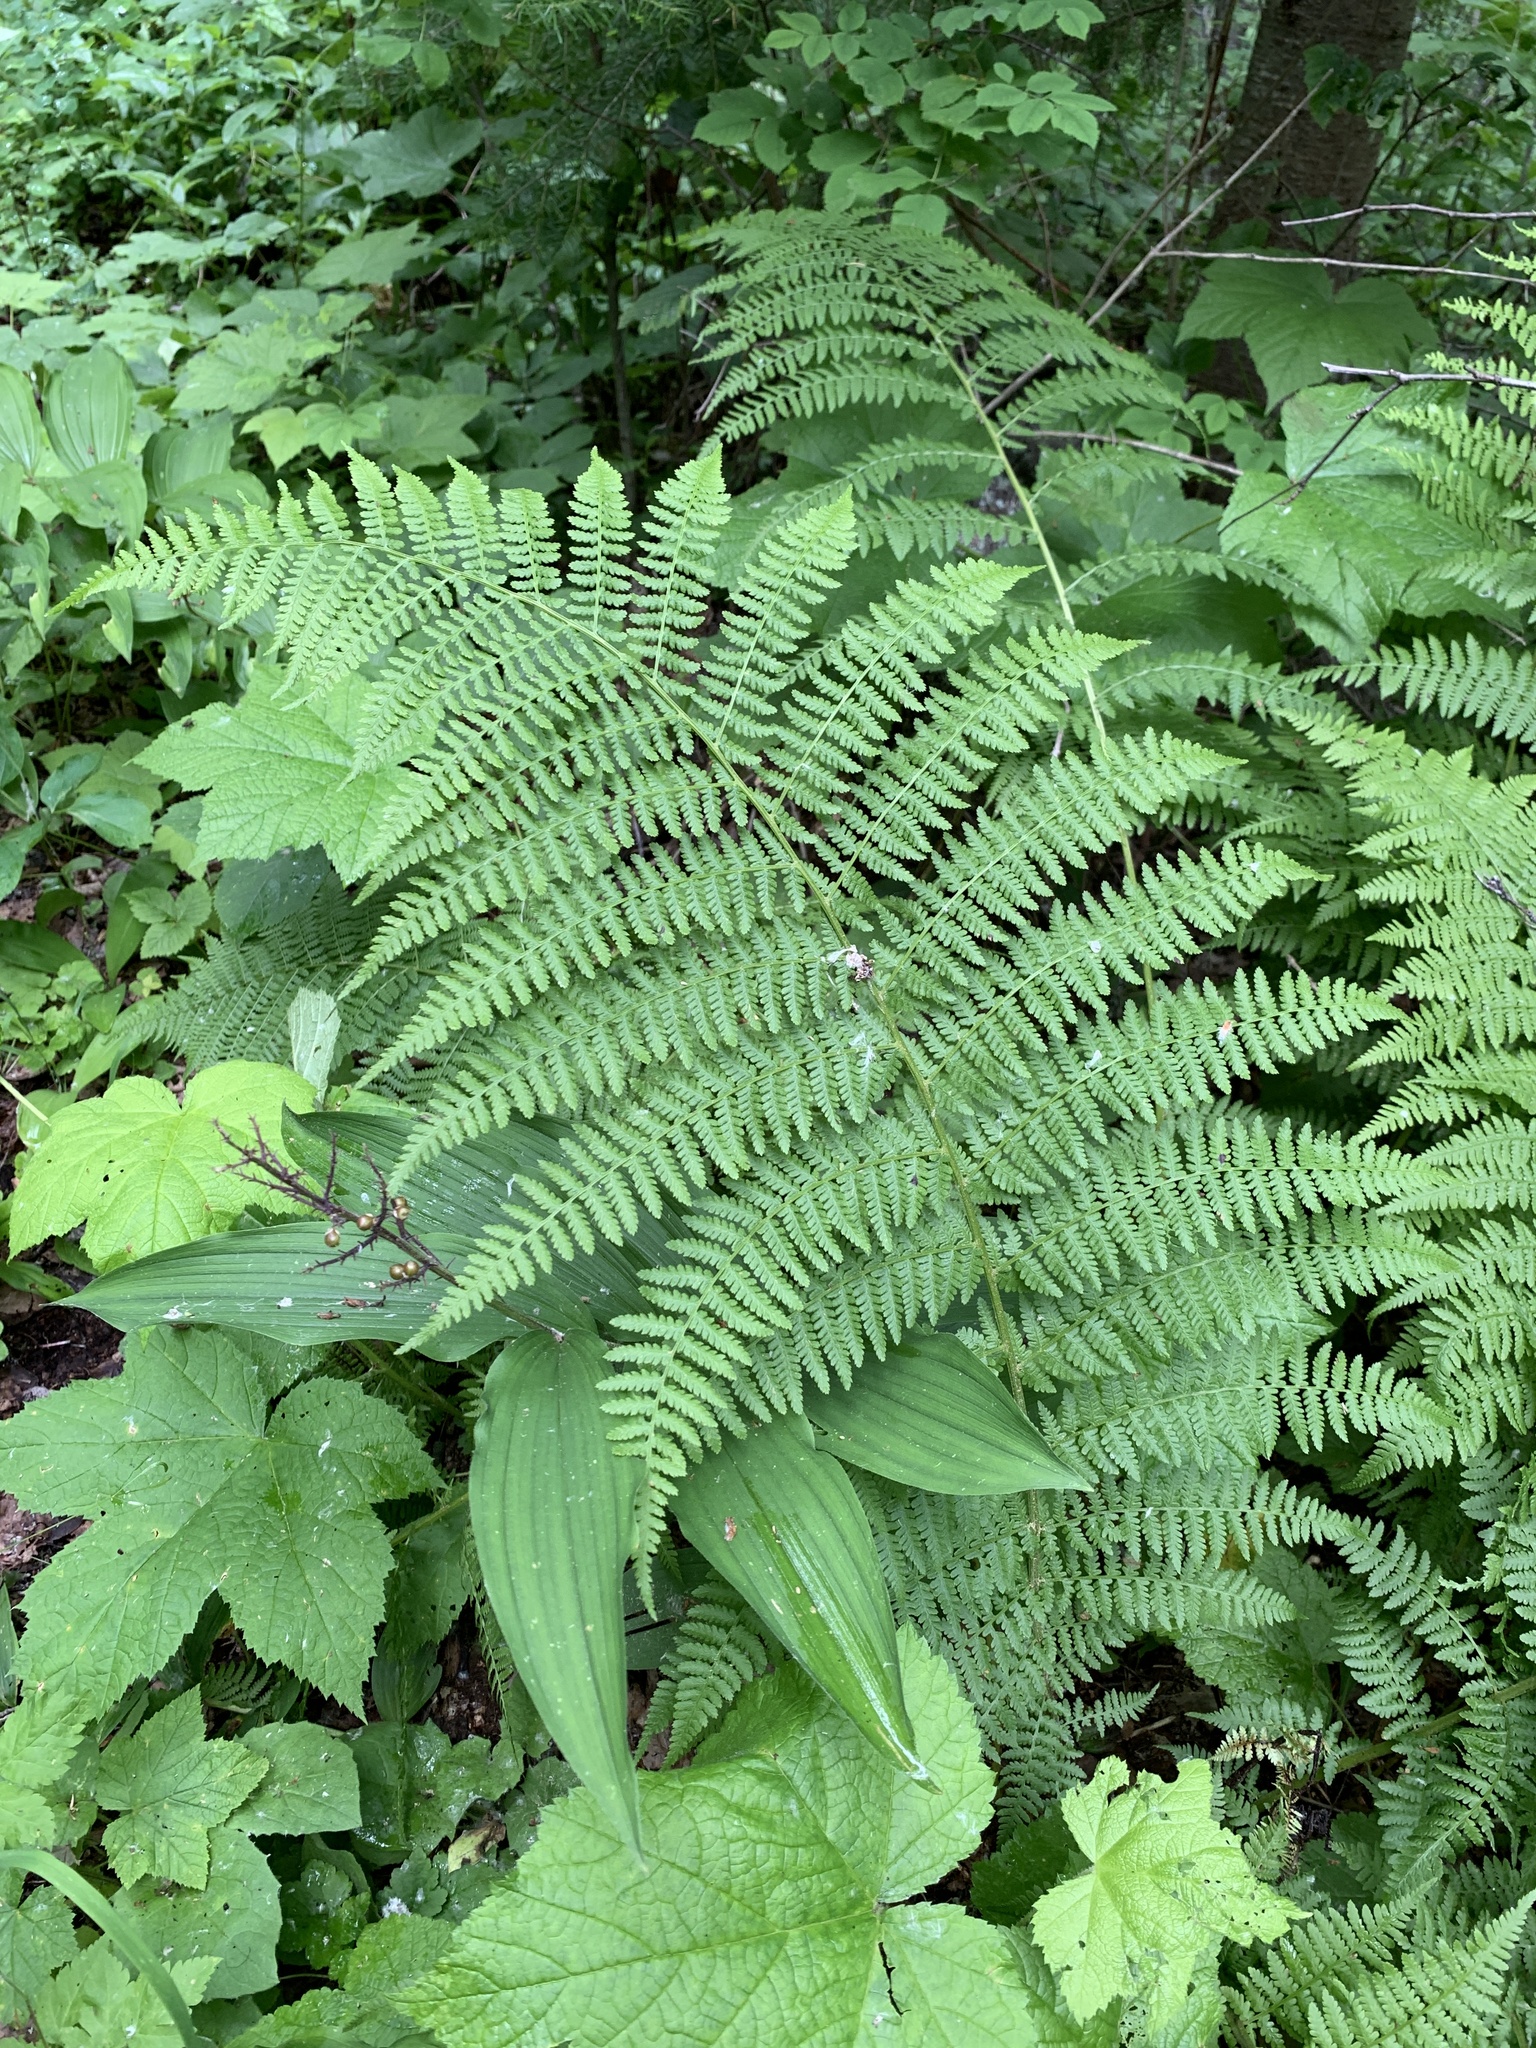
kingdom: Plantae
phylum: Tracheophyta
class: Polypodiopsida
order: Polypodiales
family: Athyriaceae
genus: Athyrium
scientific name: Athyrium filix-femina
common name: Lady fern
